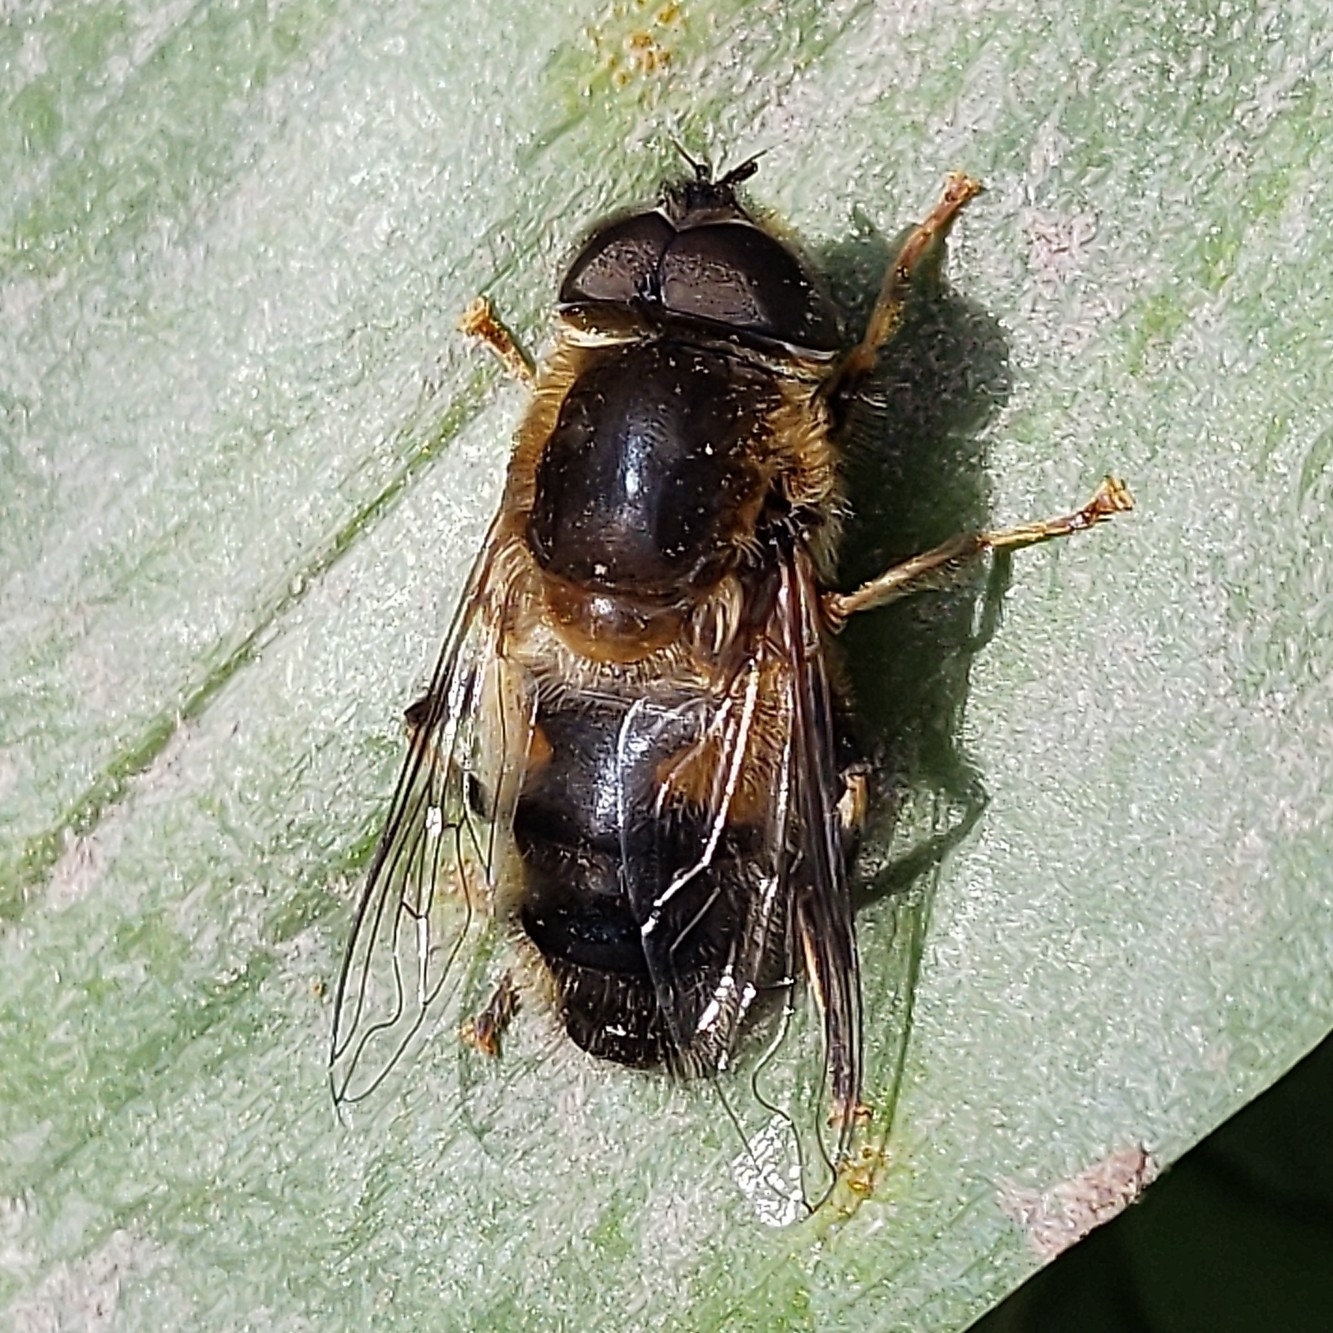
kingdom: Animalia
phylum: Arthropoda
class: Insecta
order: Diptera
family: Syrphidae
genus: Eristalis
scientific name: Eristalis pertinax
